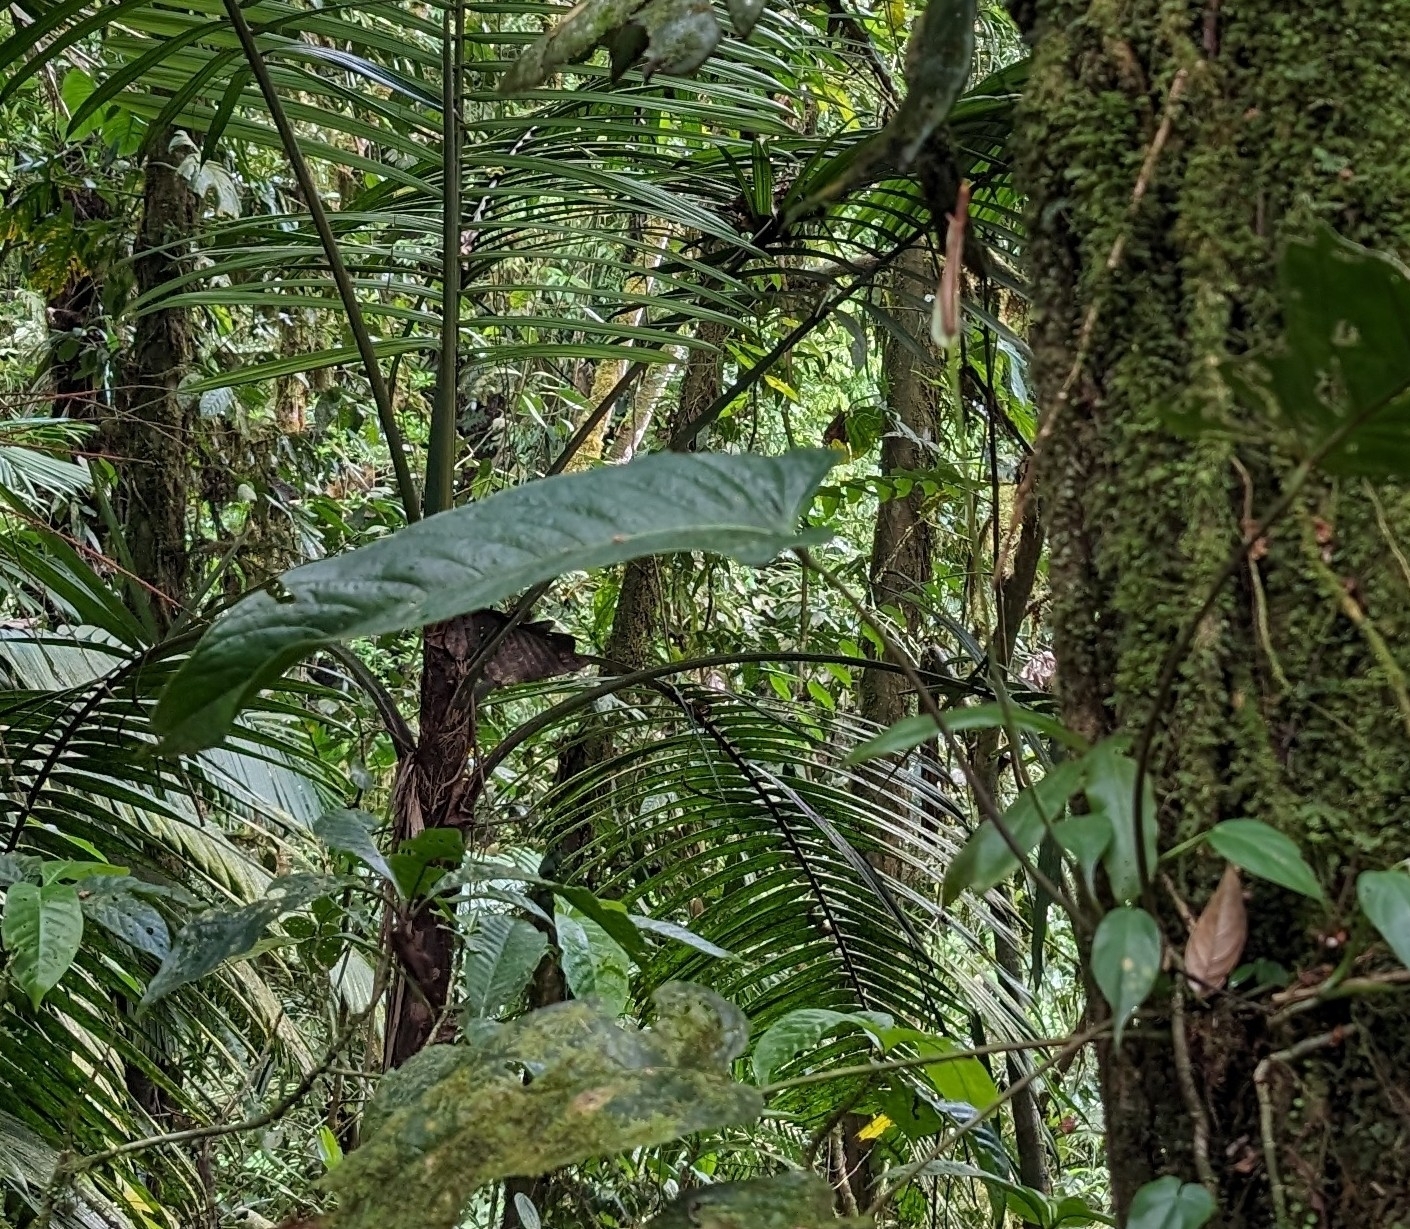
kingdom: Plantae
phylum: Tracheophyta
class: Liliopsida
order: Alismatales
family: Araceae
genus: Anthurium
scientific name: Anthurium talamancae
